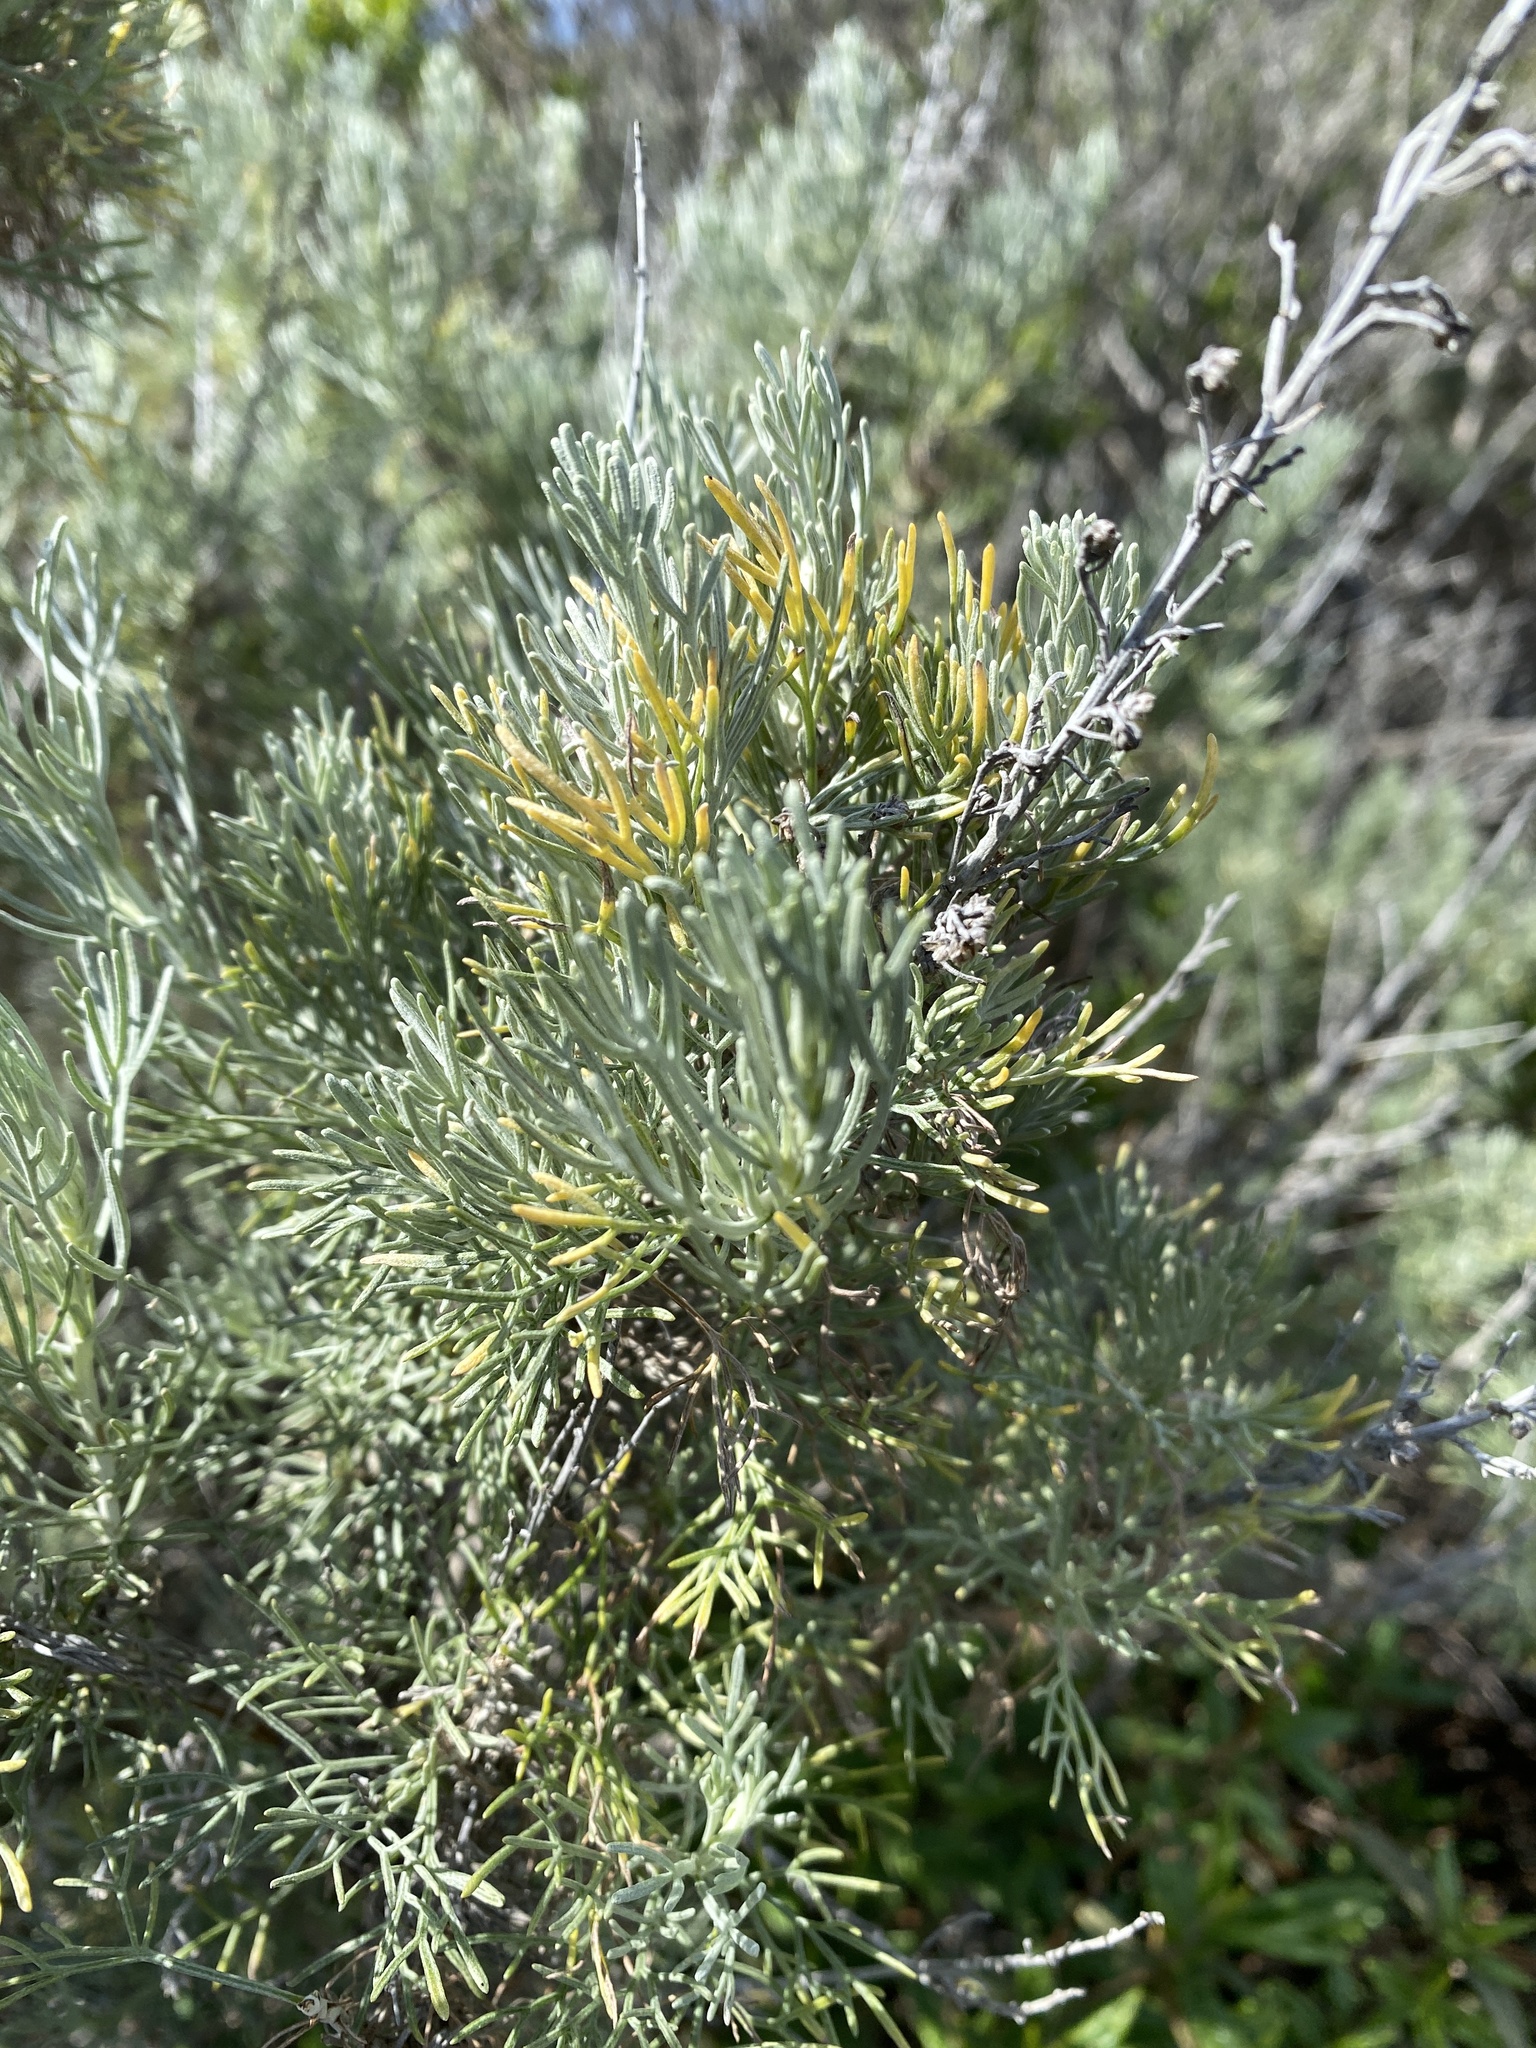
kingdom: Plantae
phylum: Tracheophyta
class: Magnoliopsida
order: Asterales
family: Asteraceae
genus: Artemisia
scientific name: Artemisia californica
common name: California sagebrush
